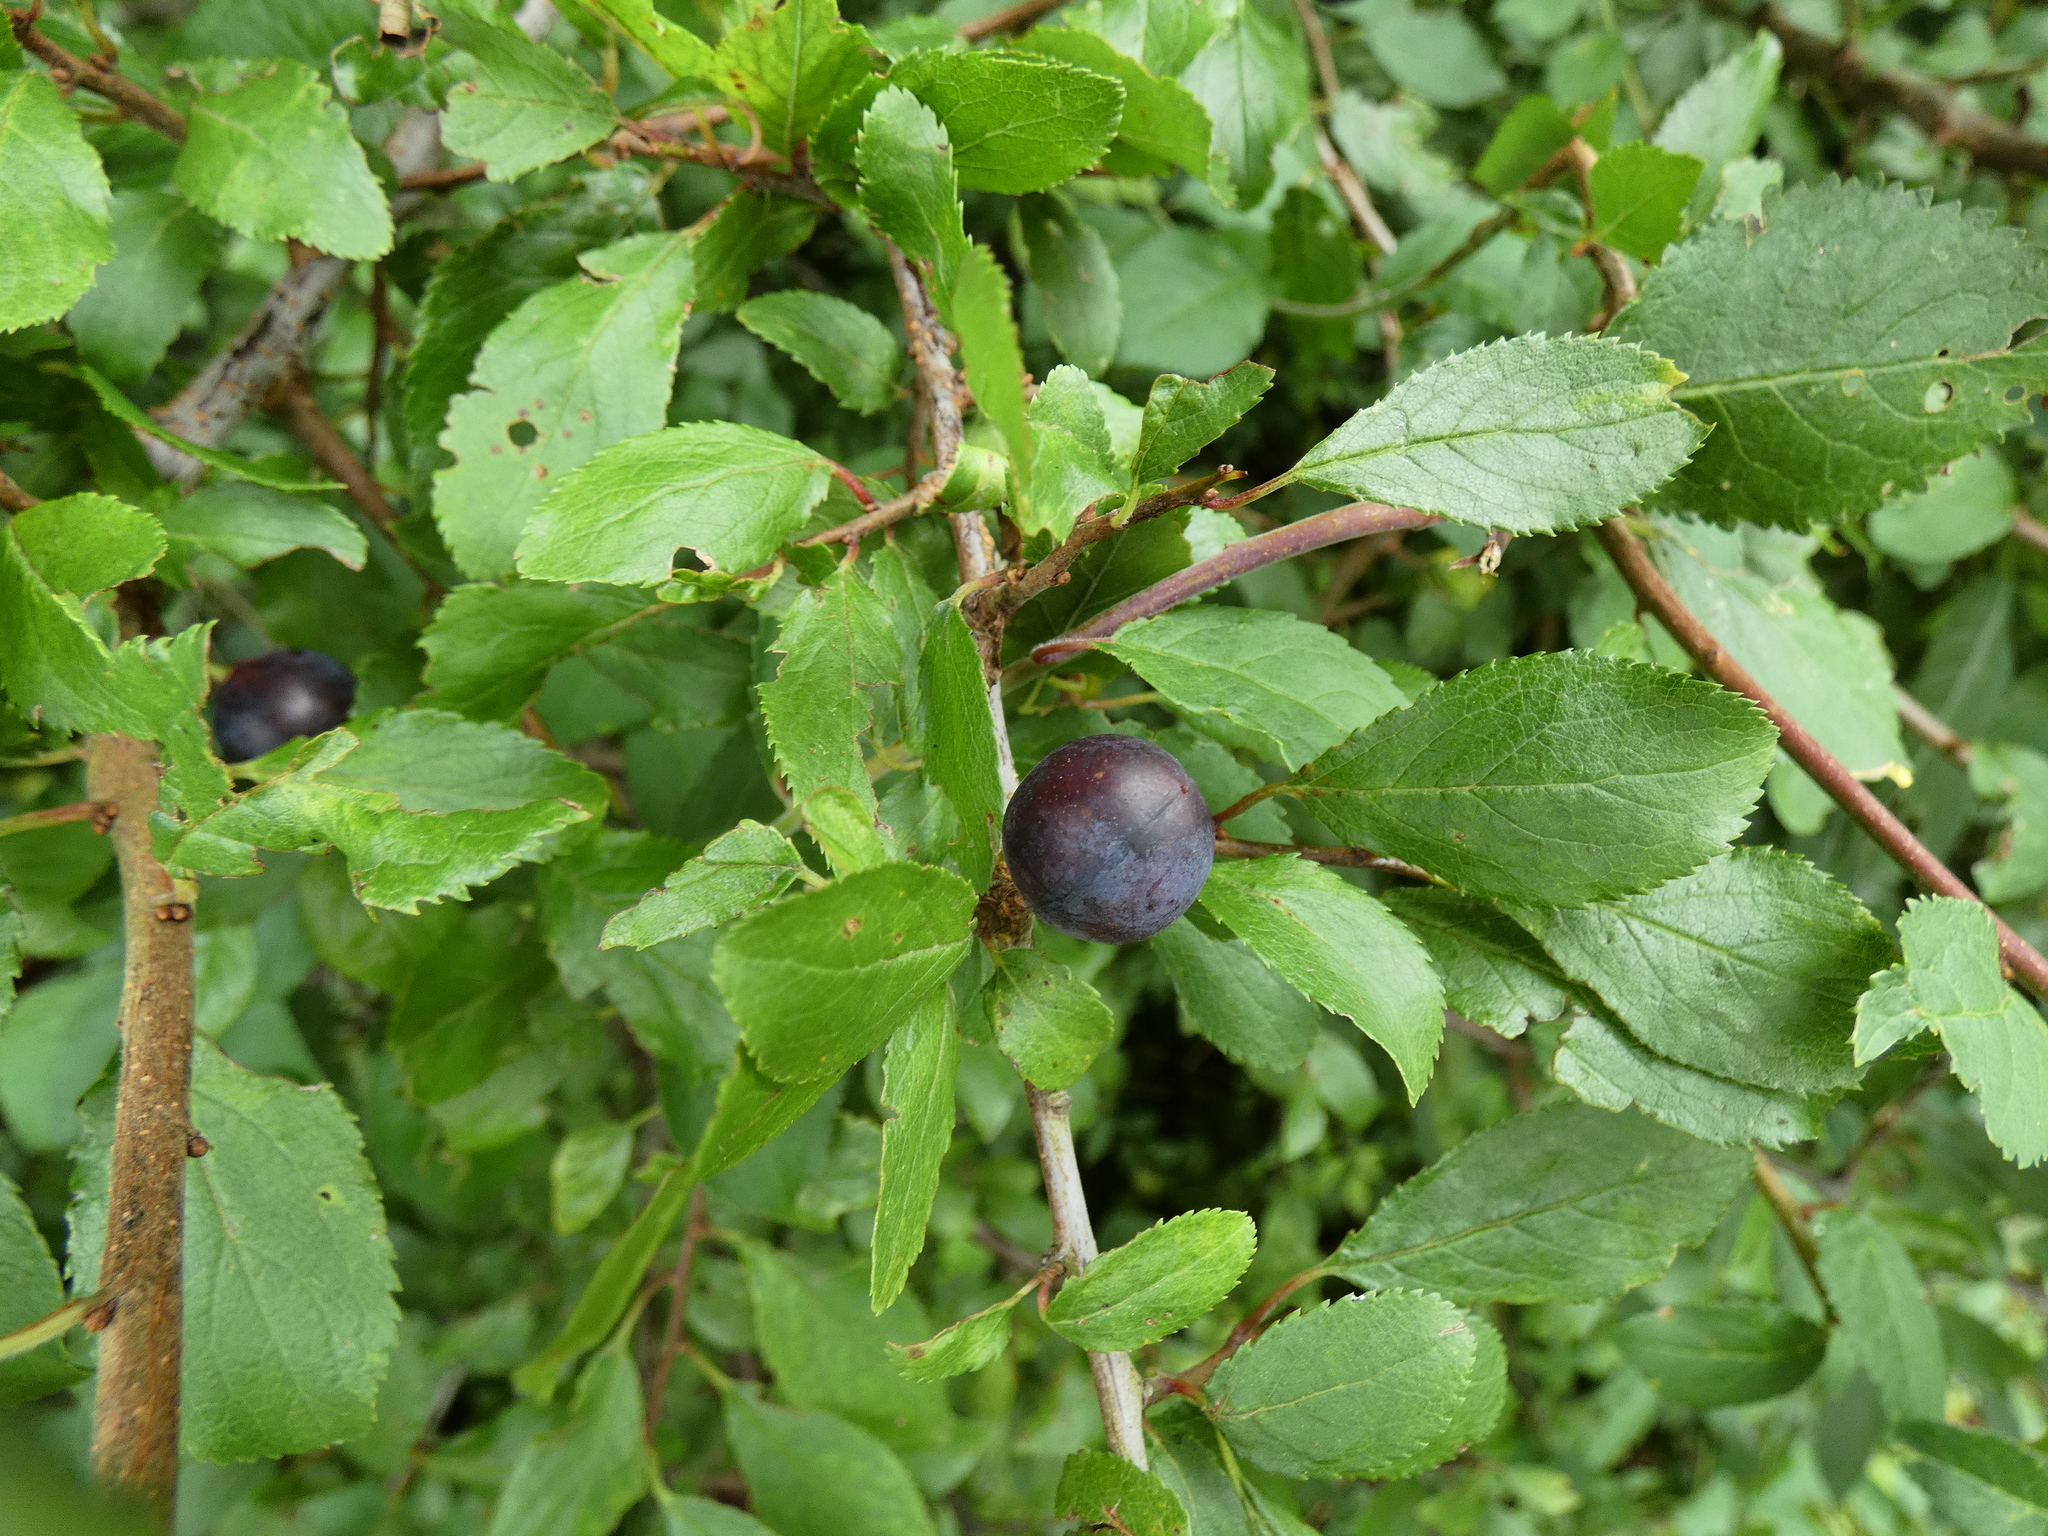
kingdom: Plantae
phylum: Tracheophyta
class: Magnoliopsida
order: Rosales
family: Rosaceae
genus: Prunus
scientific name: Prunus spinosa
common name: Blackthorn
